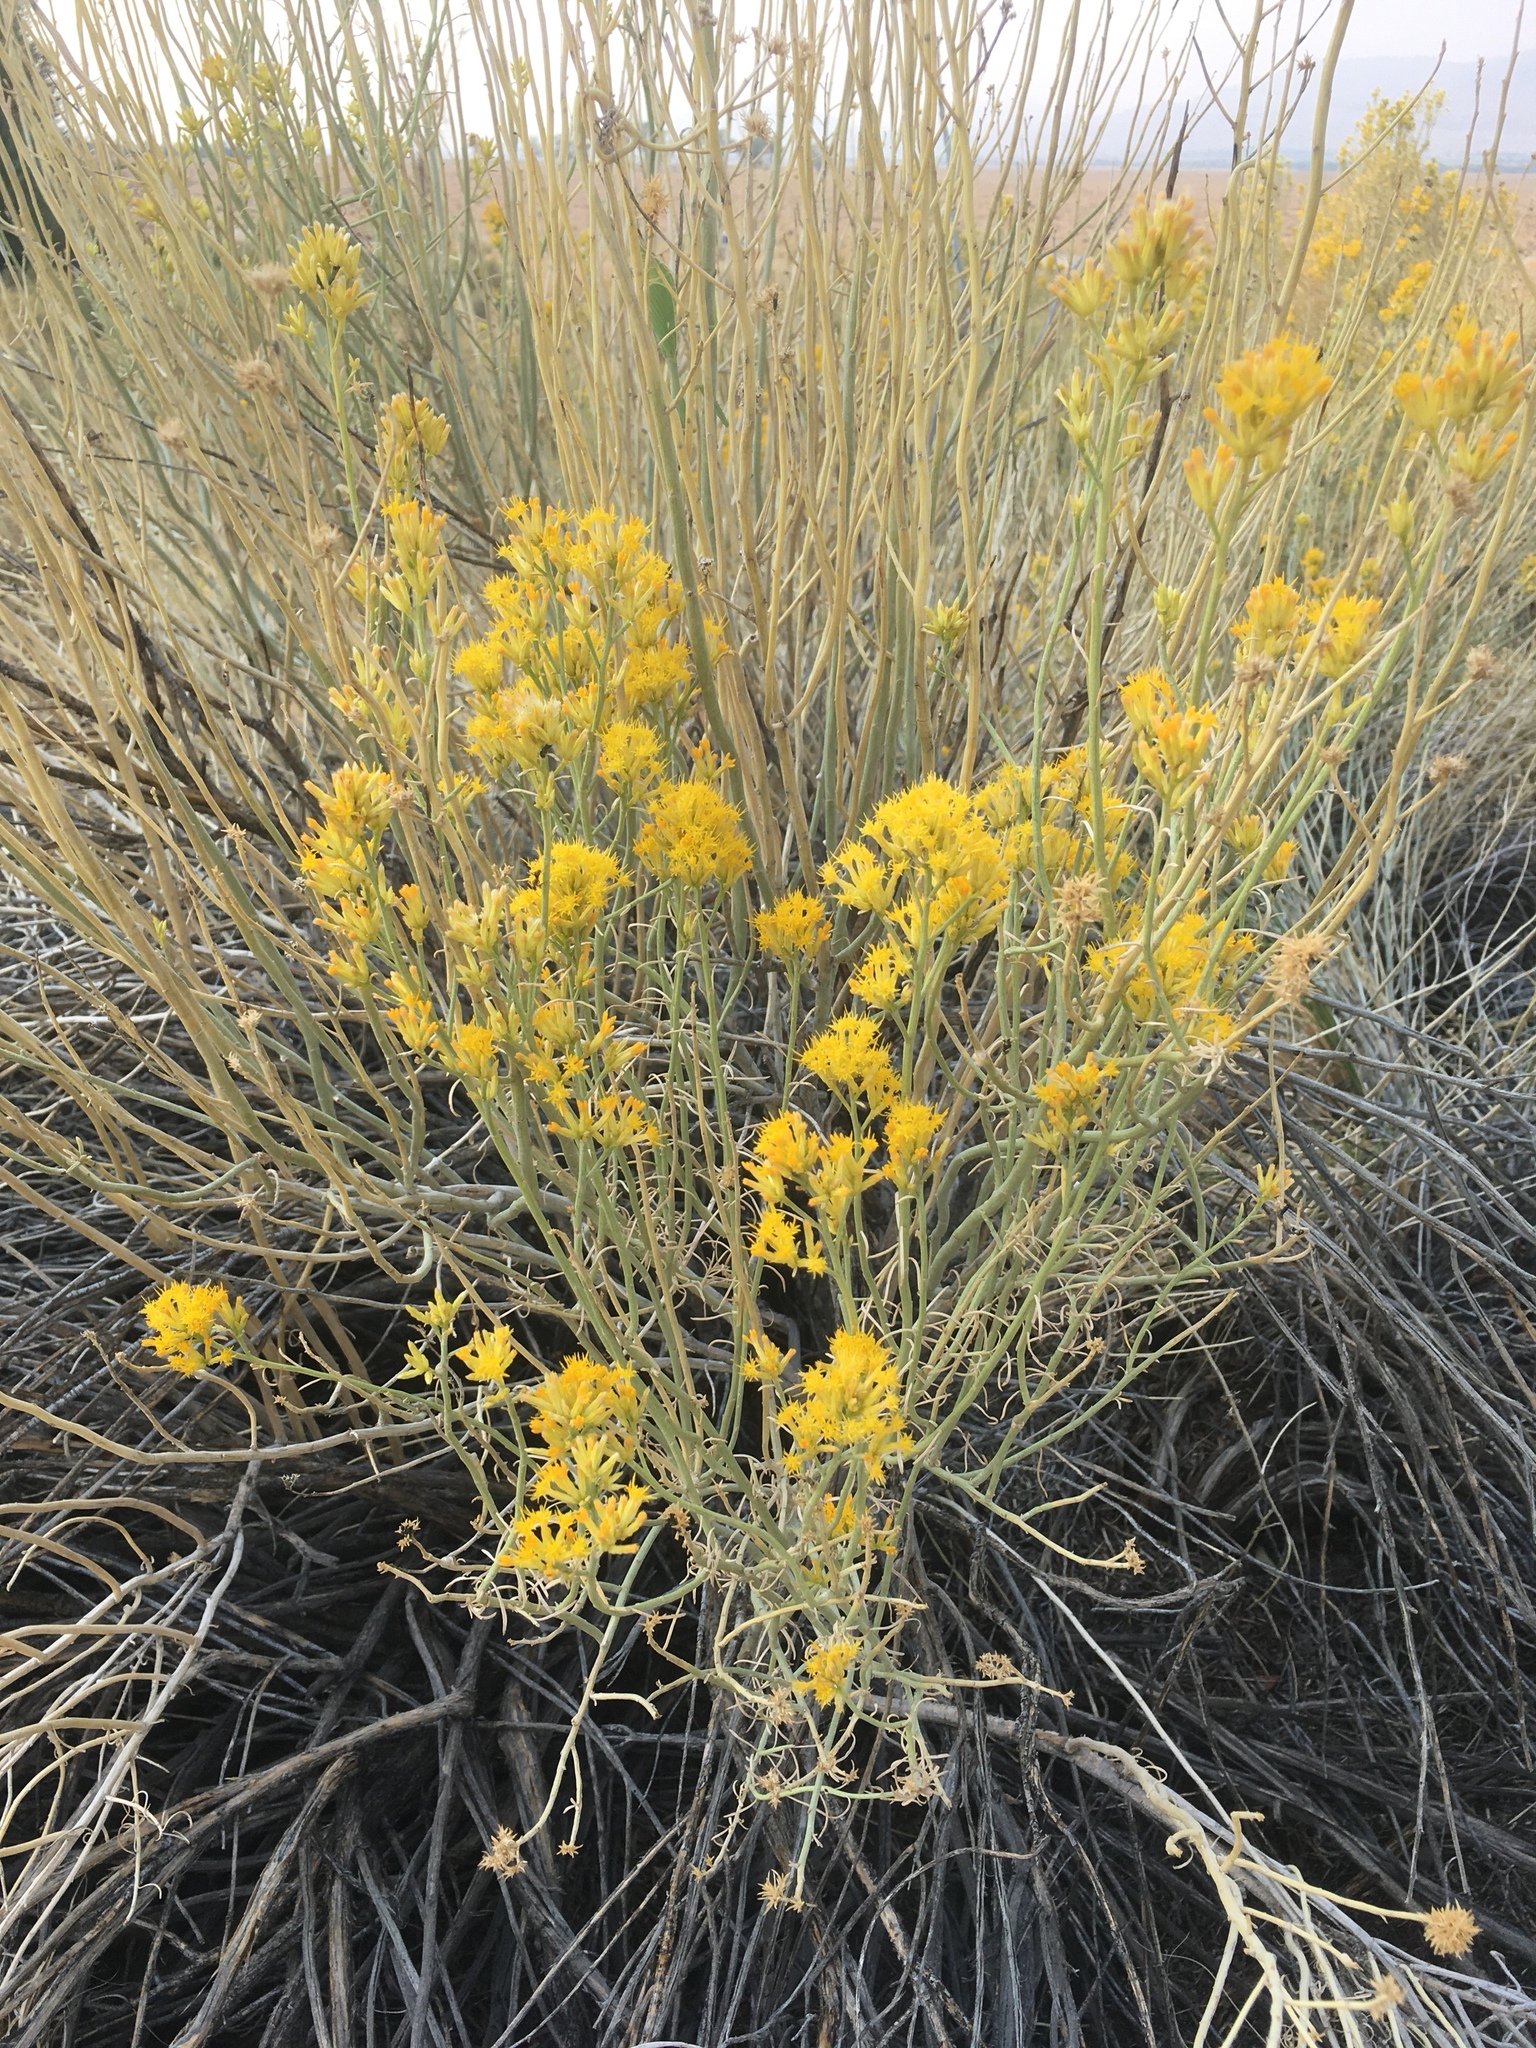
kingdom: Plantae
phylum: Tracheophyta
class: Magnoliopsida
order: Asterales
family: Asteraceae
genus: Ericameria
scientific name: Ericameria nauseosa
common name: Rubber rabbitbrush
